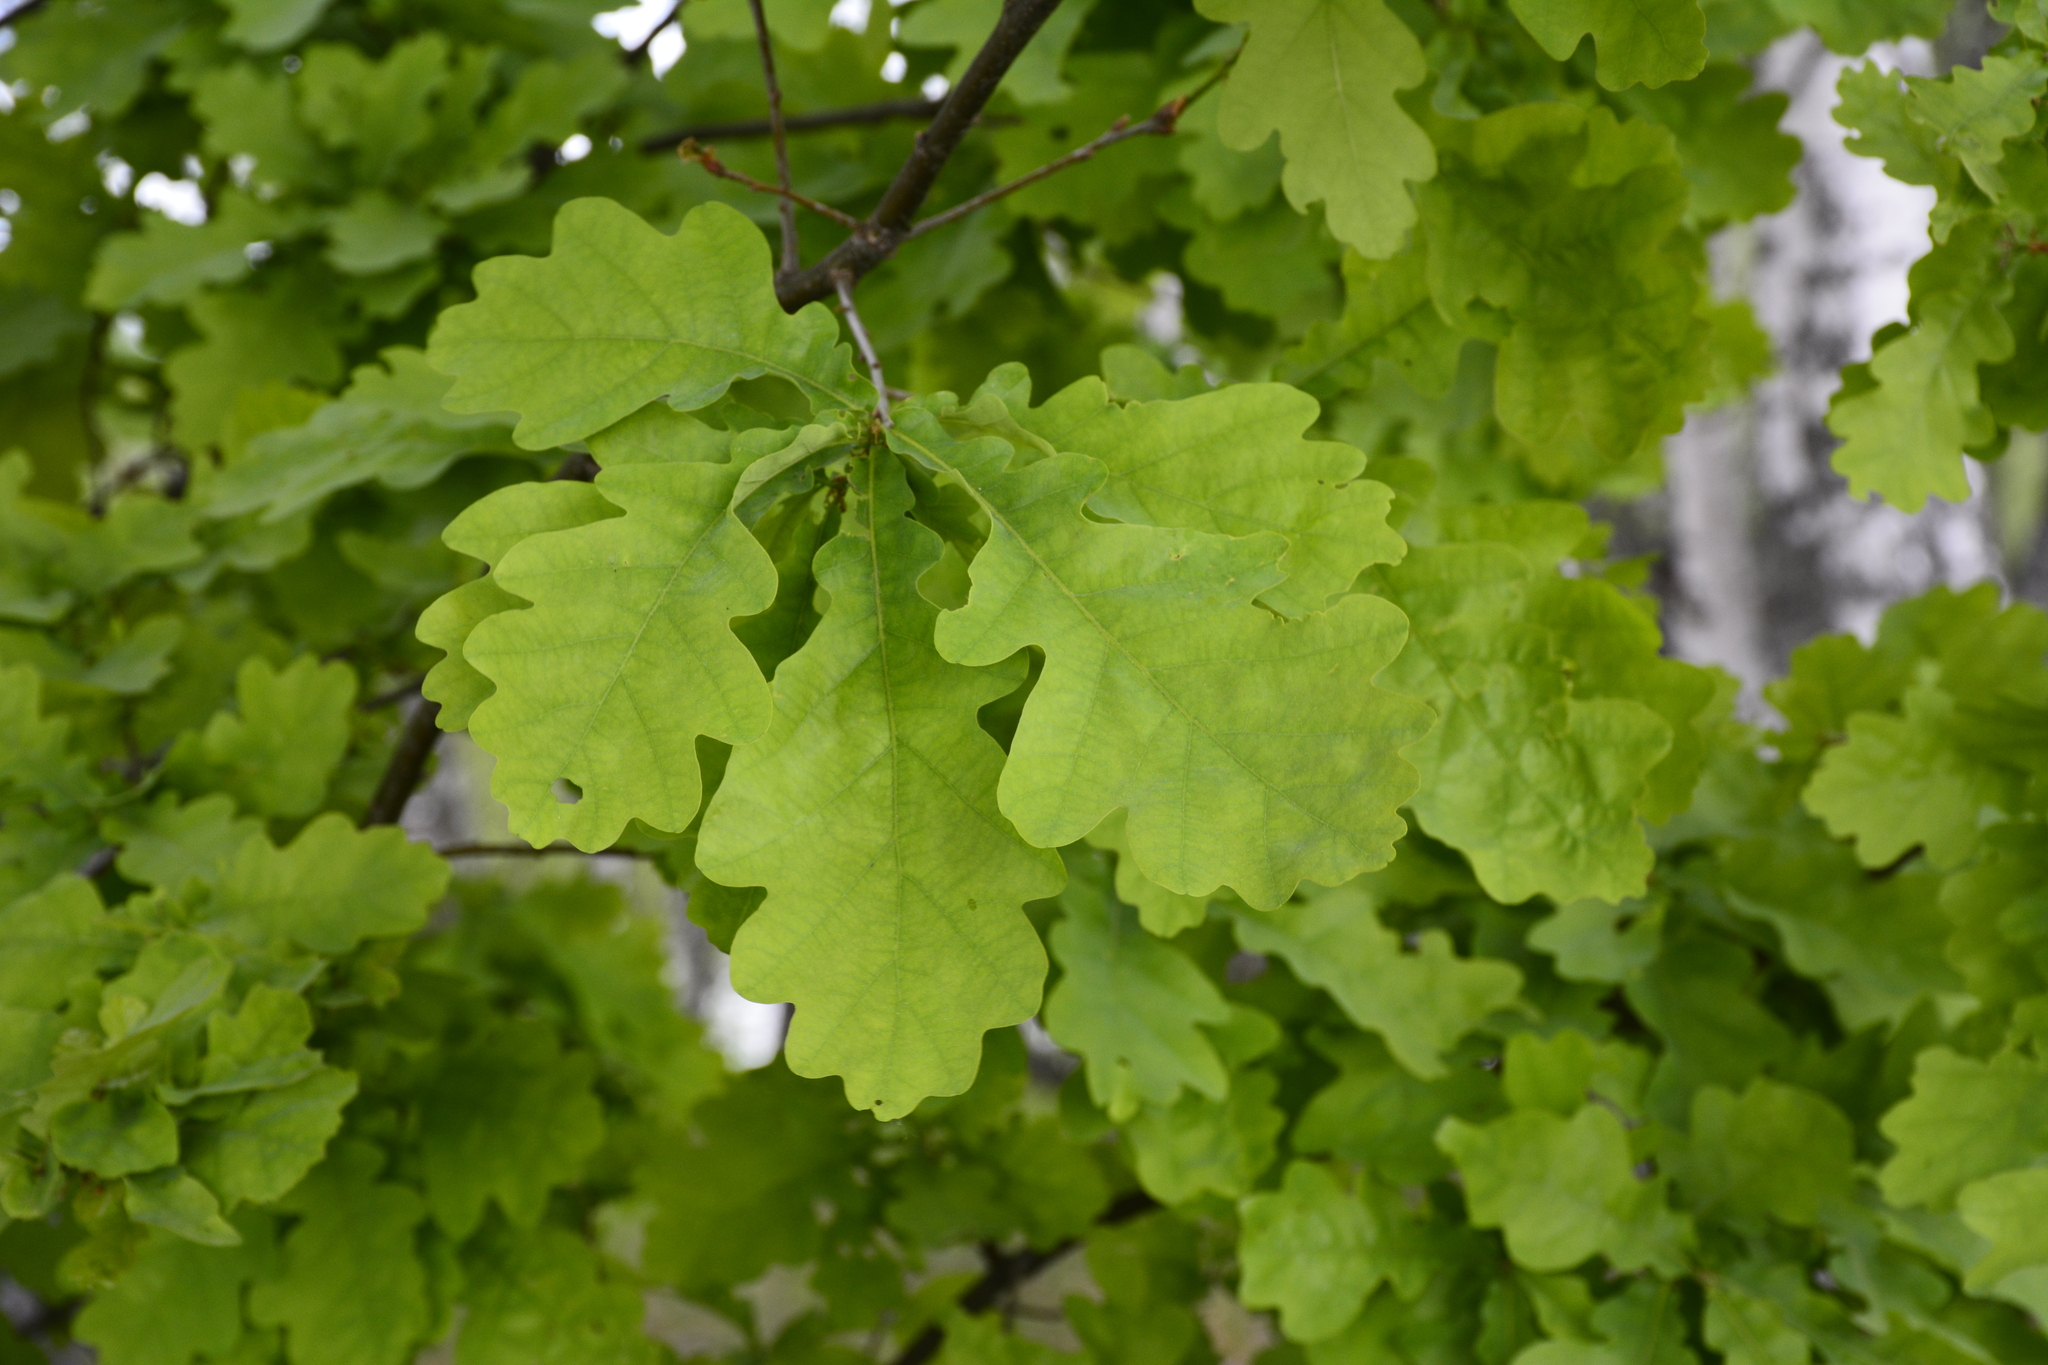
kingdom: Plantae
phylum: Tracheophyta
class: Magnoliopsida
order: Fagales
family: Fagaceae
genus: Quercus
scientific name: Quercus robur
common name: Pedunculate oak
